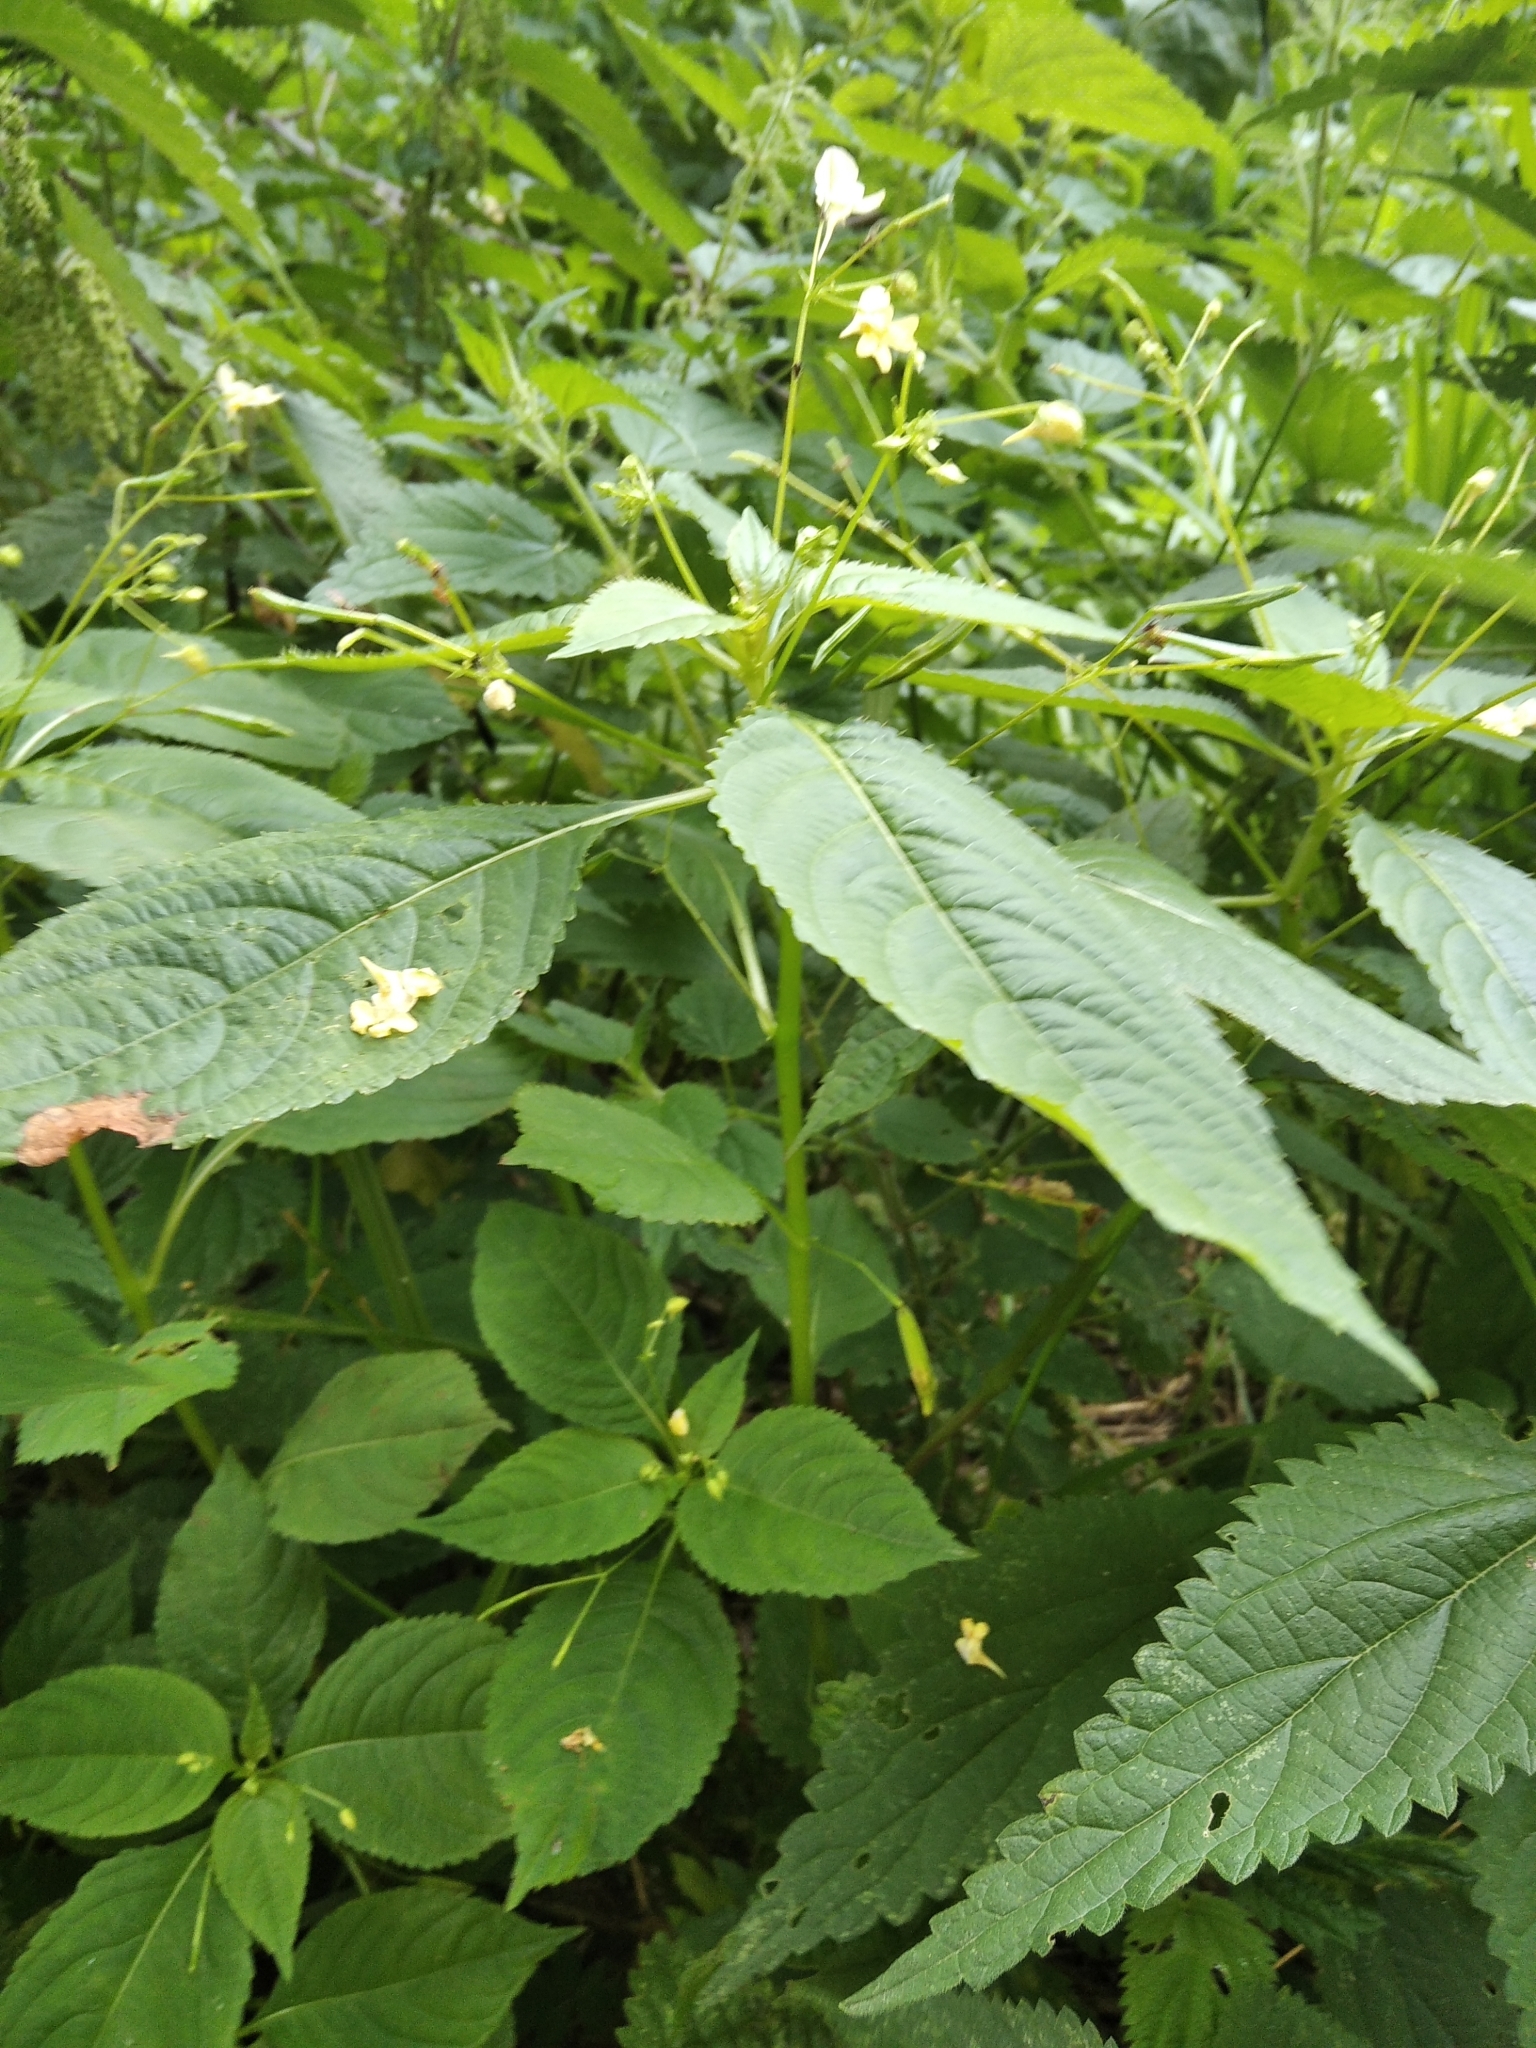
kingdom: Plantae
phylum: Tracheophyta
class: Magnoliopsida
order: Ericales
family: Balsaminaceae
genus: Impatiens
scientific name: Impatiens parviflora
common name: Small balsam
